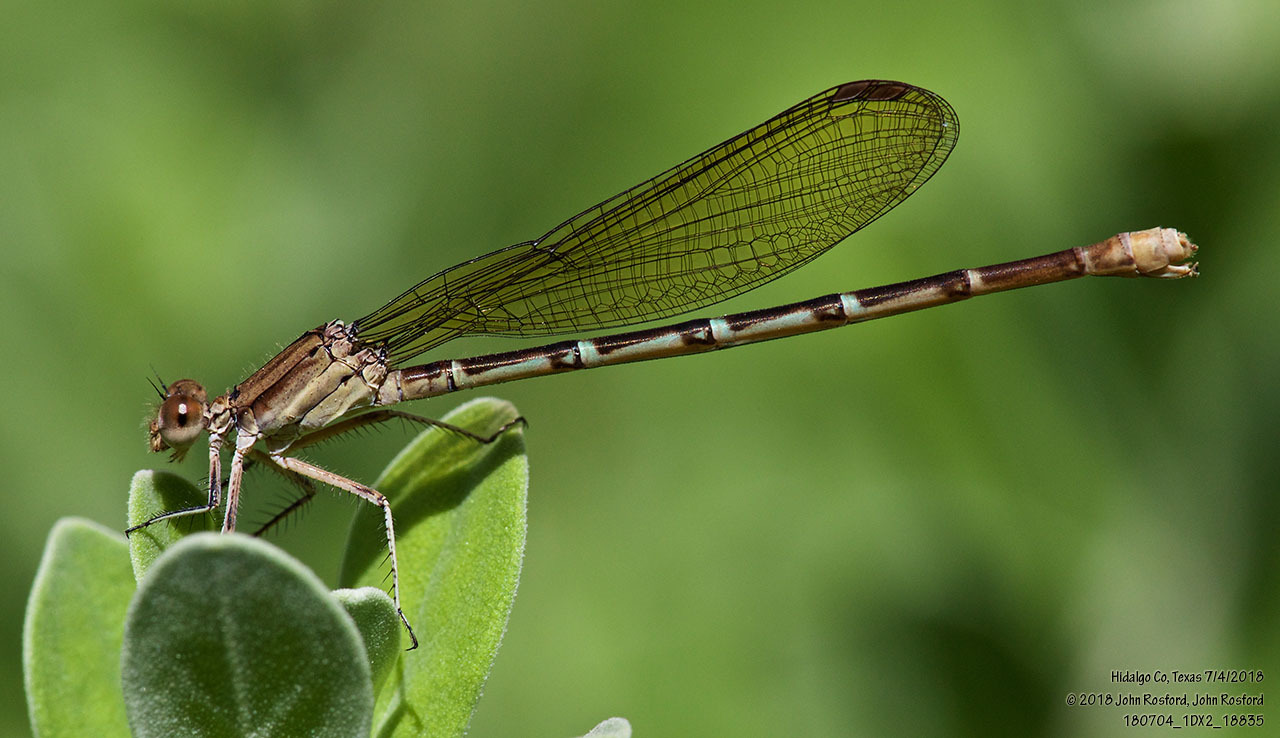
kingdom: Animalia
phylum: Arthropoda
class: Insecta
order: Odonata
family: Coenagrionidae
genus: Argia
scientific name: Argia sedula
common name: Blue-ringed dancer
